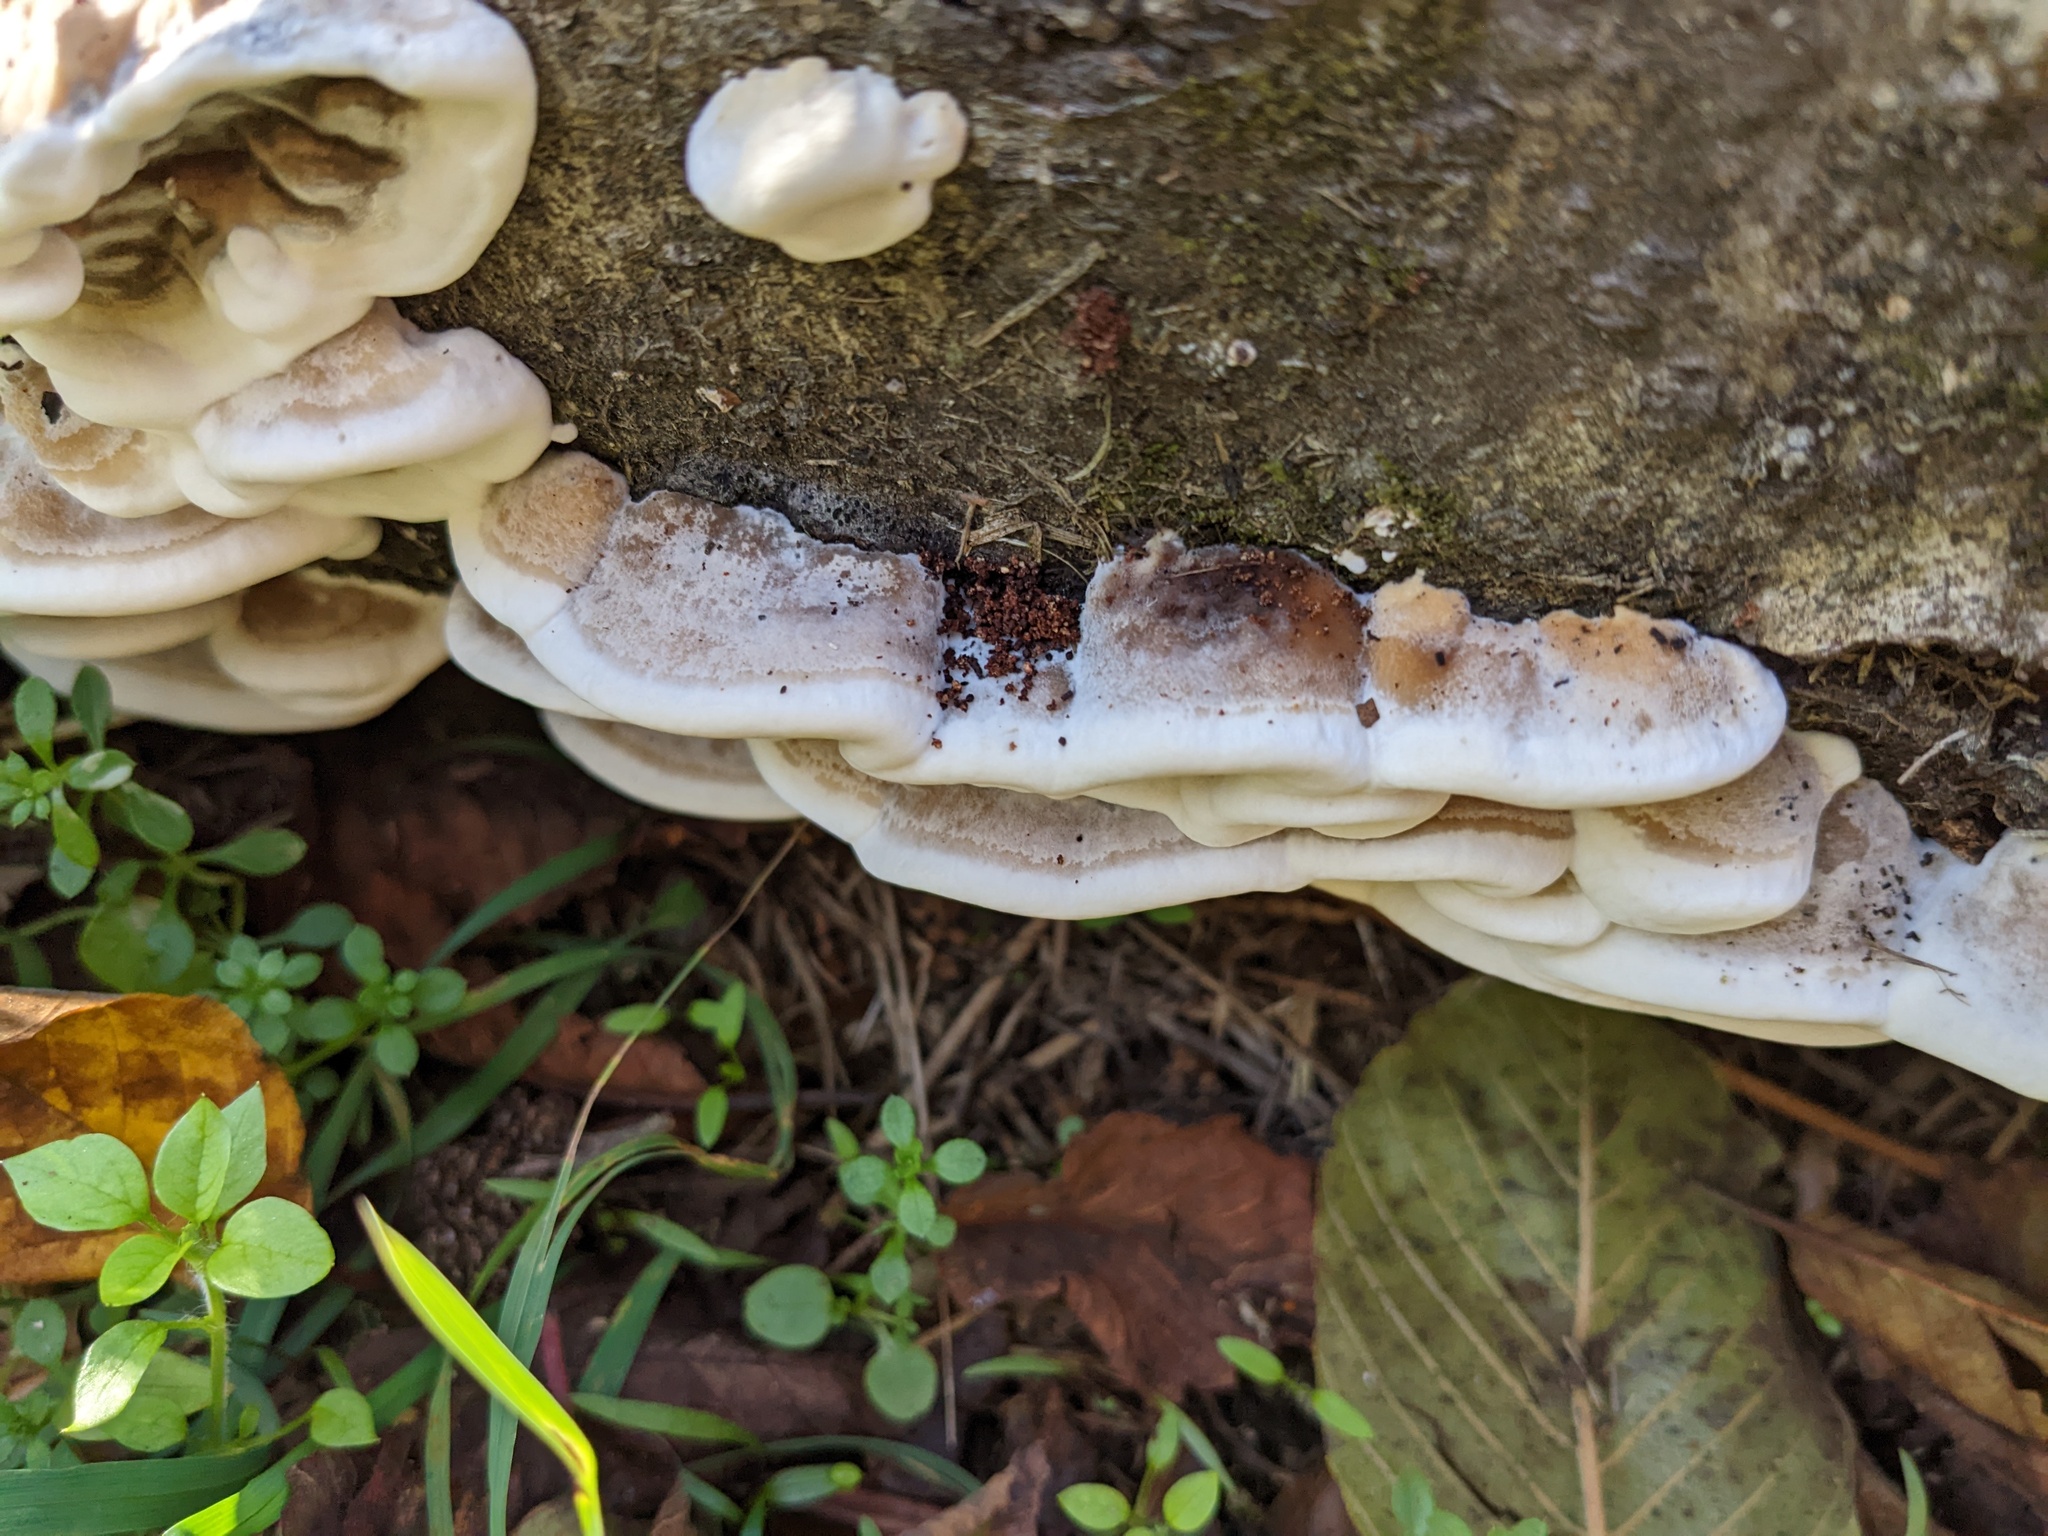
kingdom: Fungi
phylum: Basidiomycota
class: Agaricomycetes
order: Polyporales
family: Phanerochaetaceae
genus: Bjerkandera
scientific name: Bjerkandera adusta
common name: Smoky bracket
